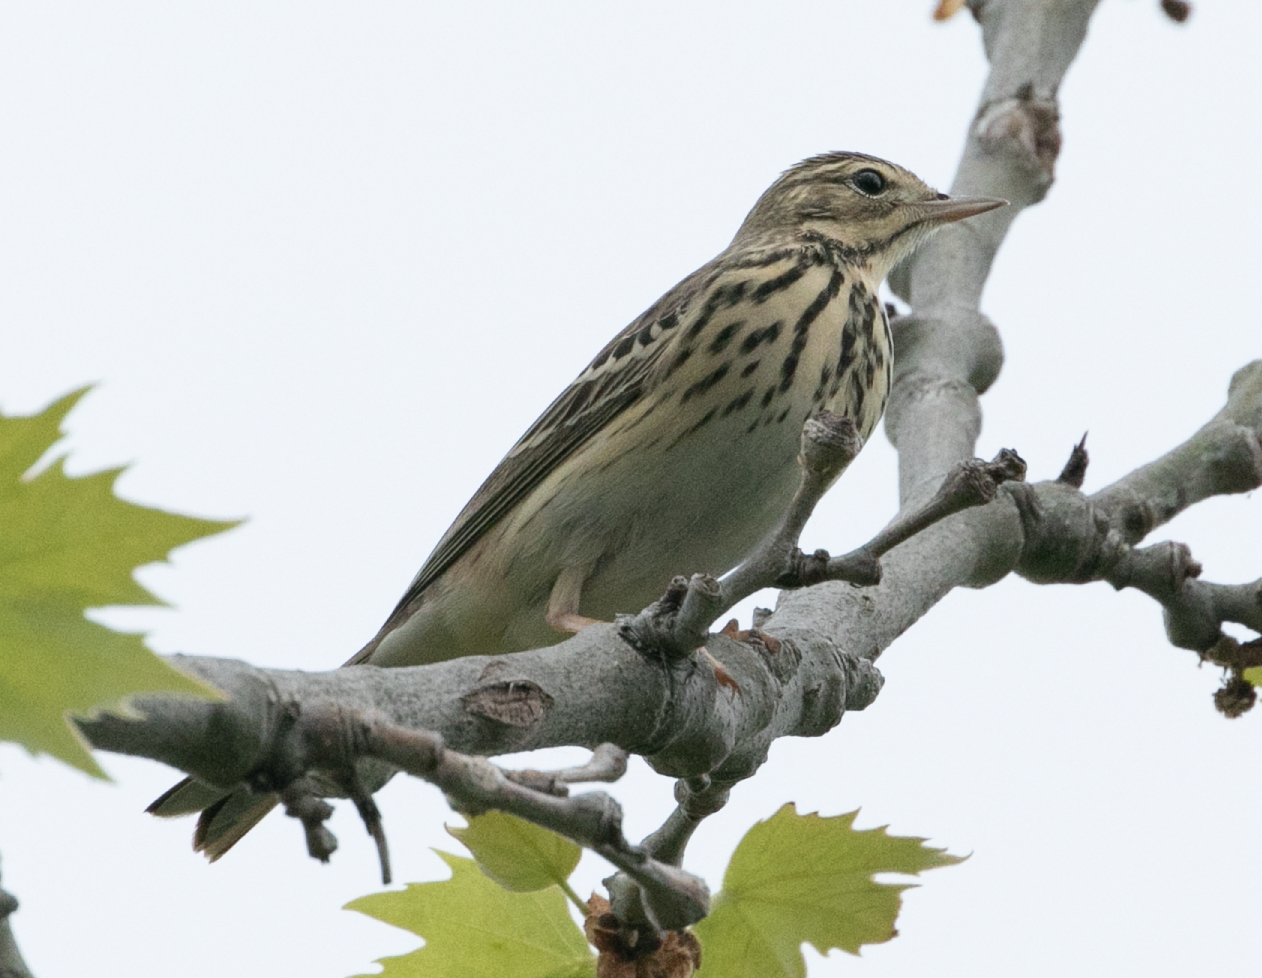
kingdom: Animalia
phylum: Chordata
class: Aves
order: Passeriformes
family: Motacillidae
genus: Anthus
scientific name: Anthus trivialis
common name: Tree pipit
